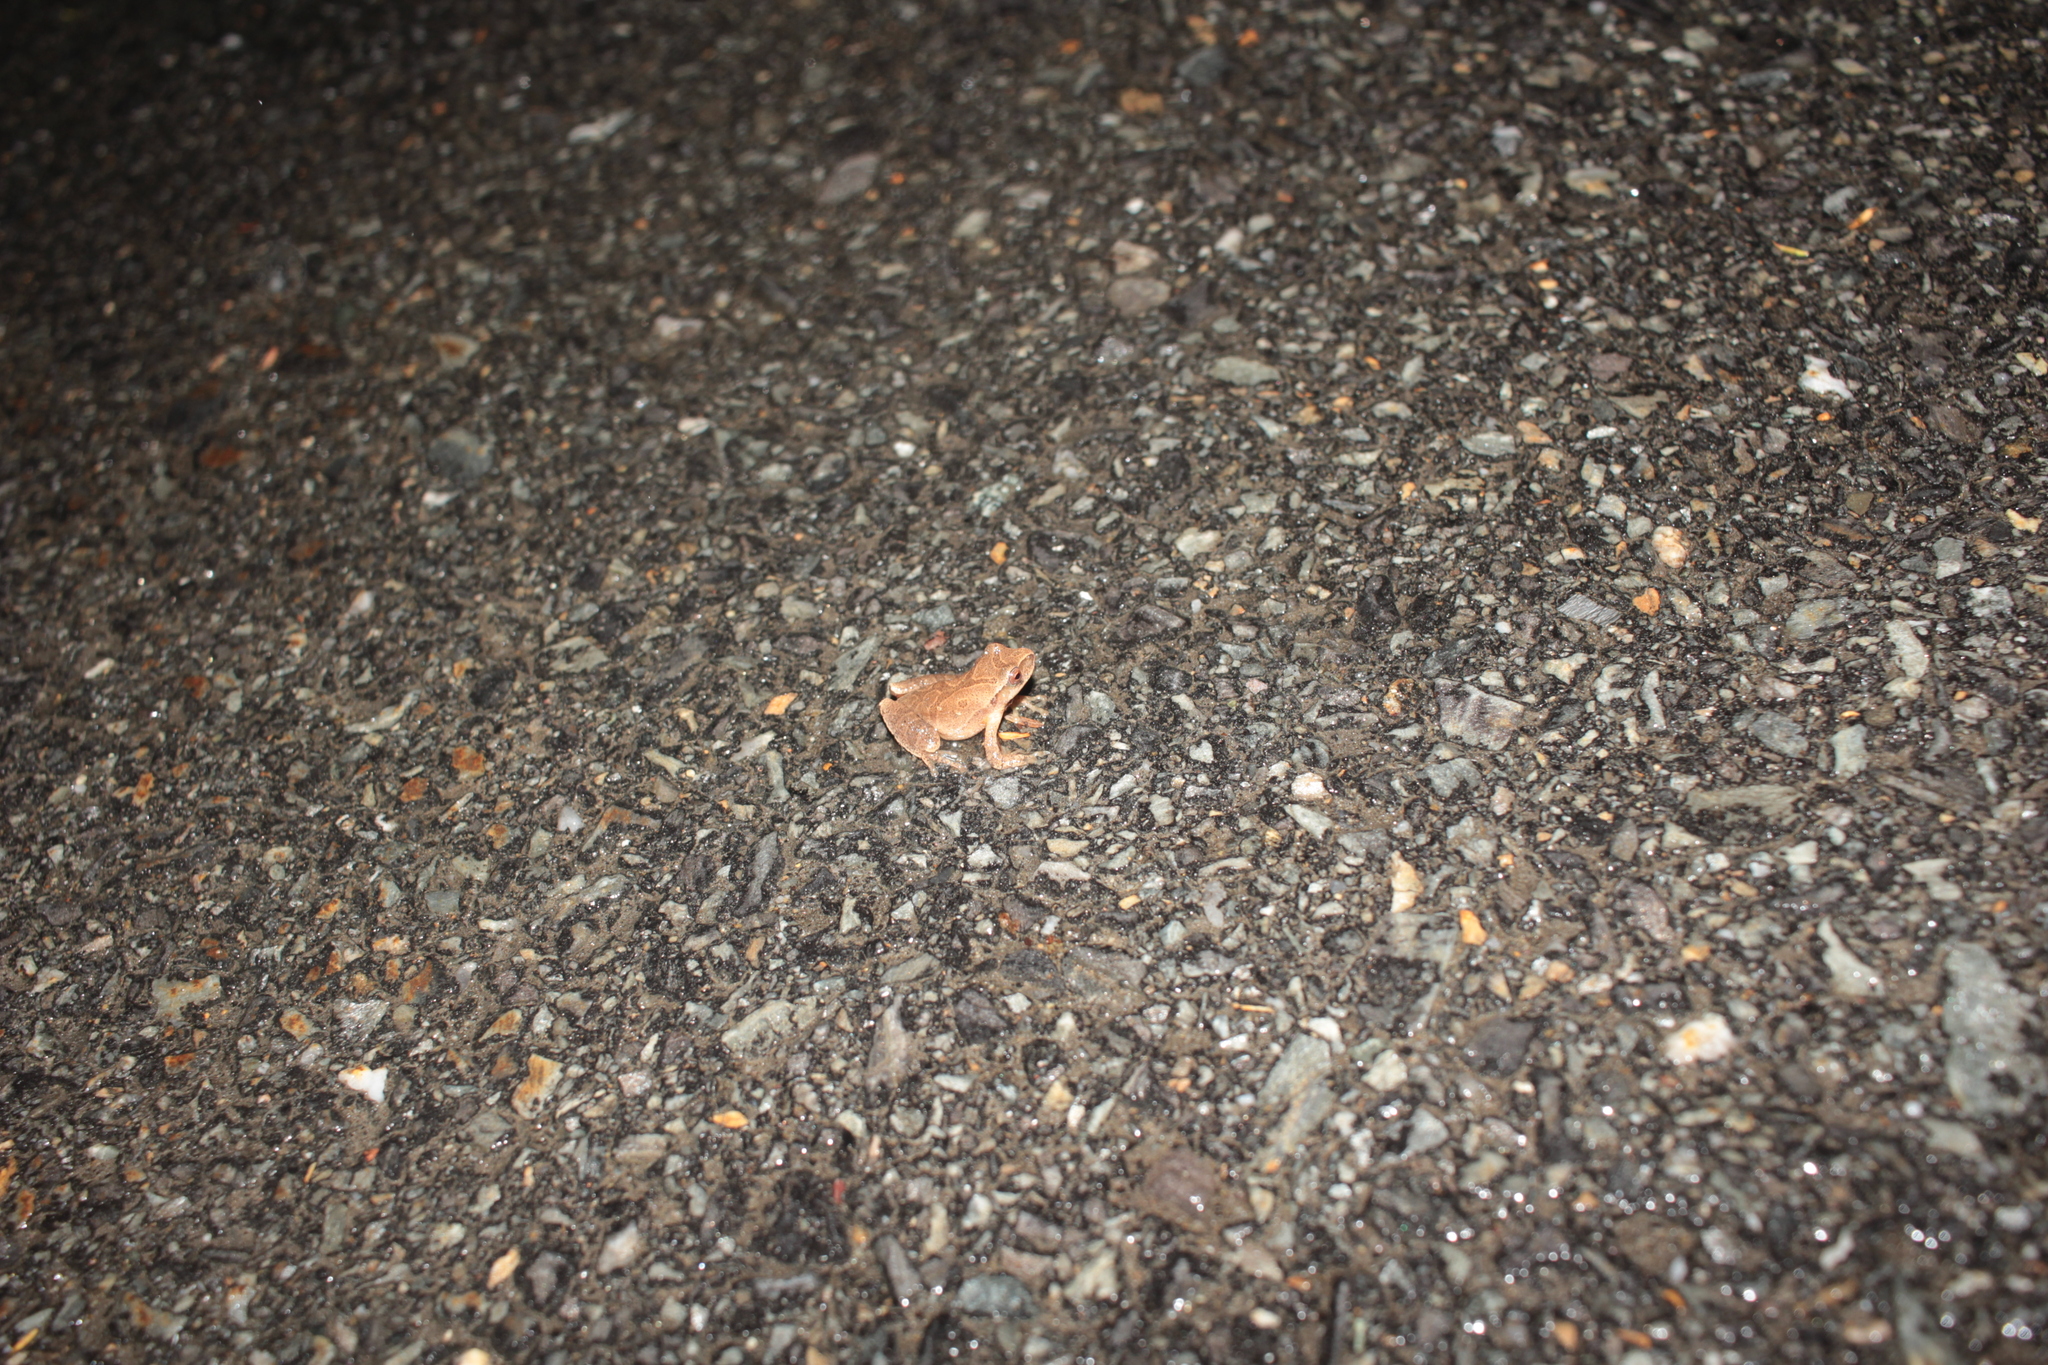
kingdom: Animalia
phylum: Chordata
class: Amphibia
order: Anura
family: Hylidae
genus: Pseudacris
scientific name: Pseudacris crucifer
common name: Spring peeper
